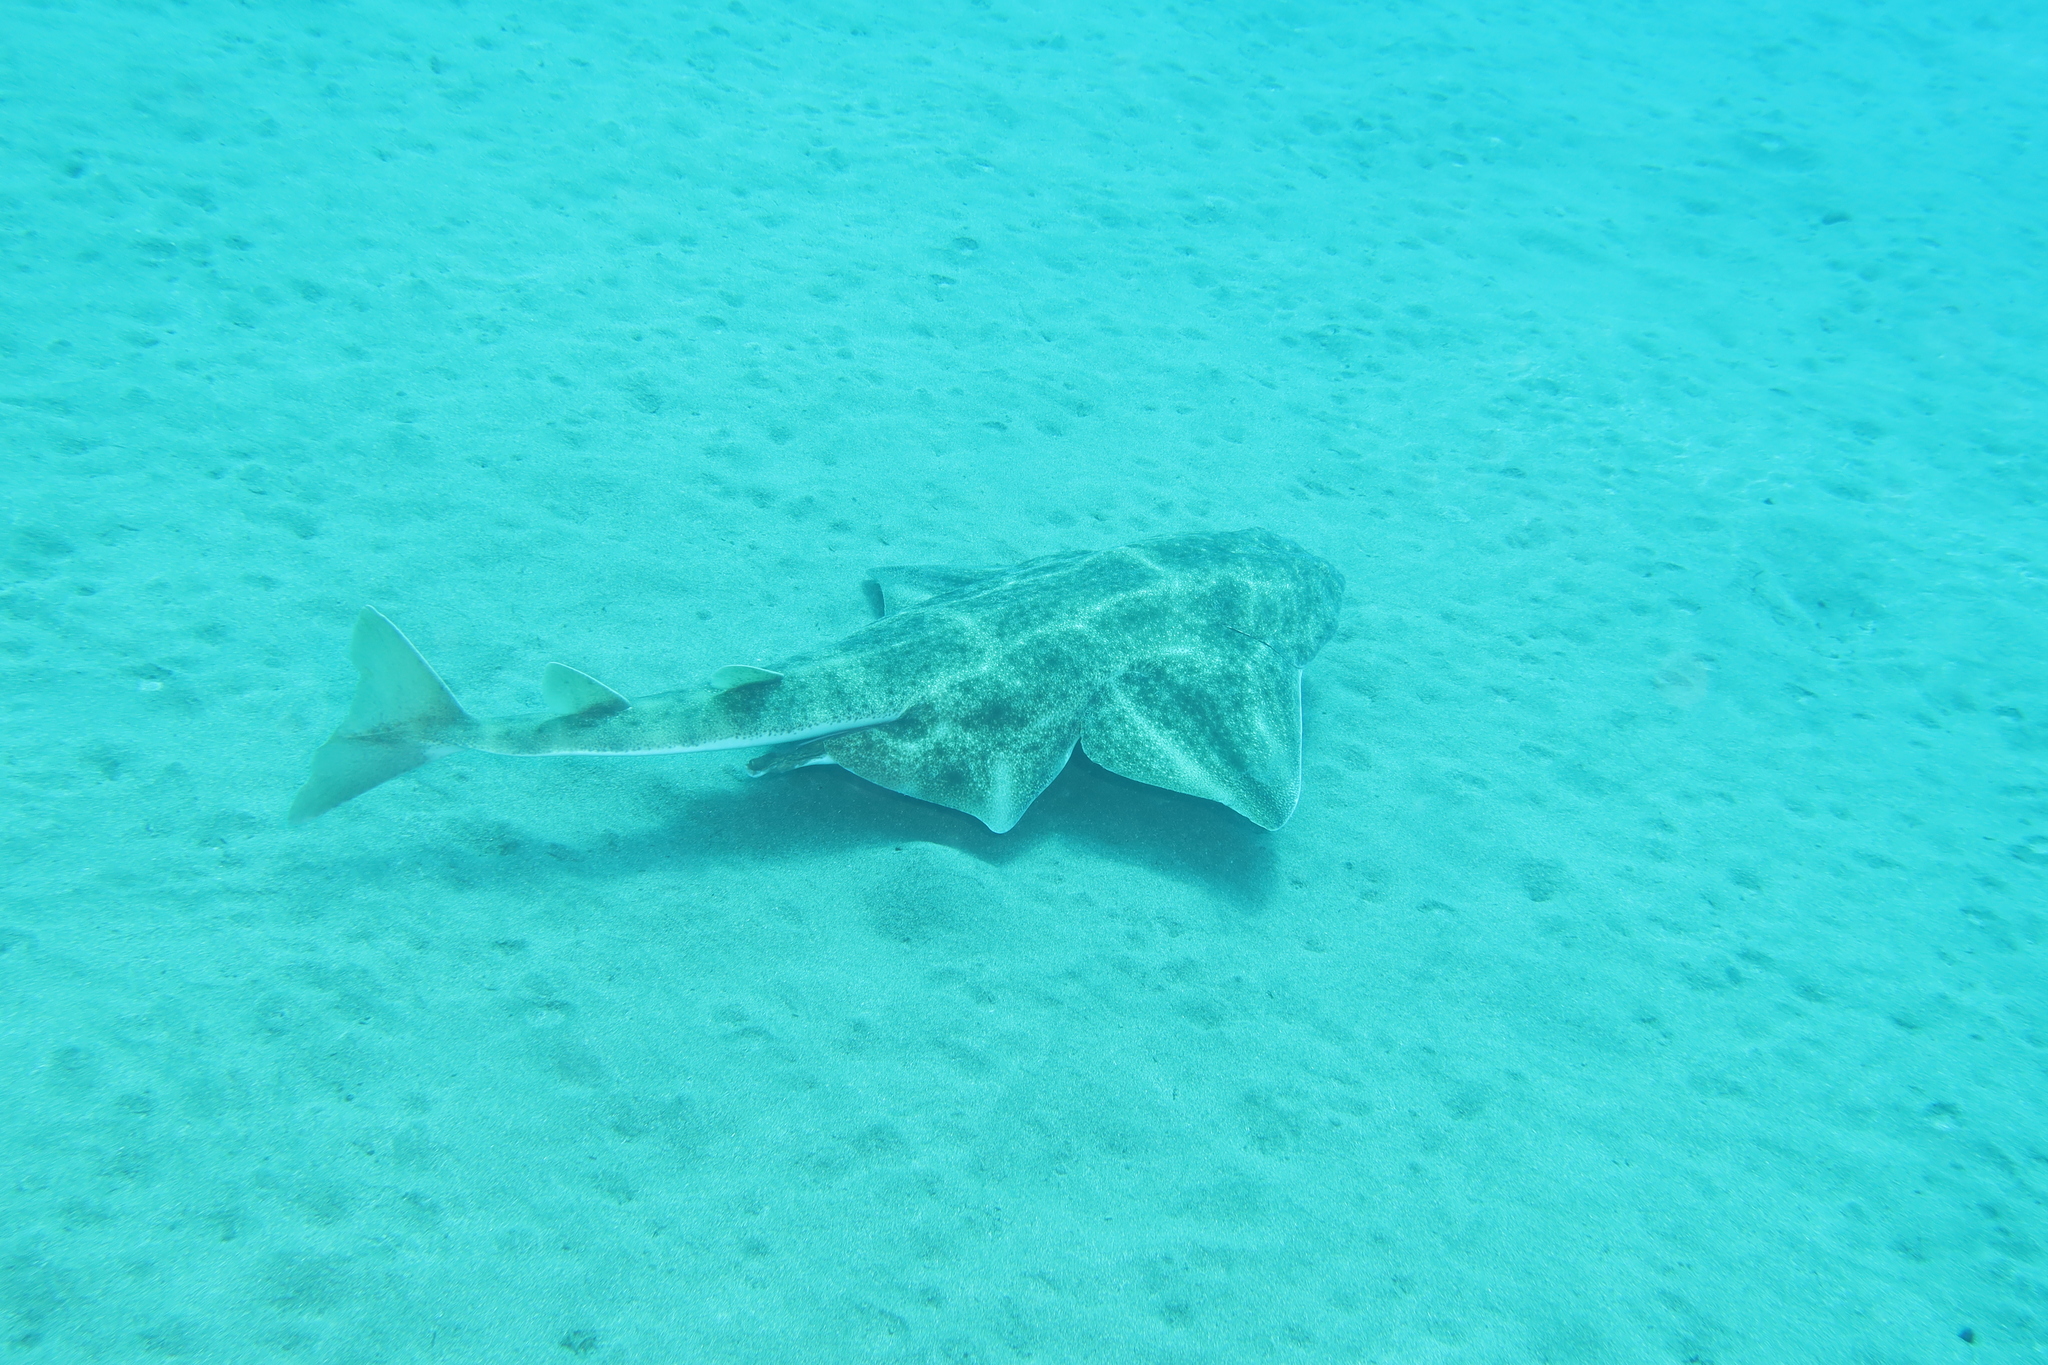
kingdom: Animalia
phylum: Chordata
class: Elasmobranchii
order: Squatiniformes
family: Squatinidae
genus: Squatina
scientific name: Squatina squatina
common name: Angel shark
